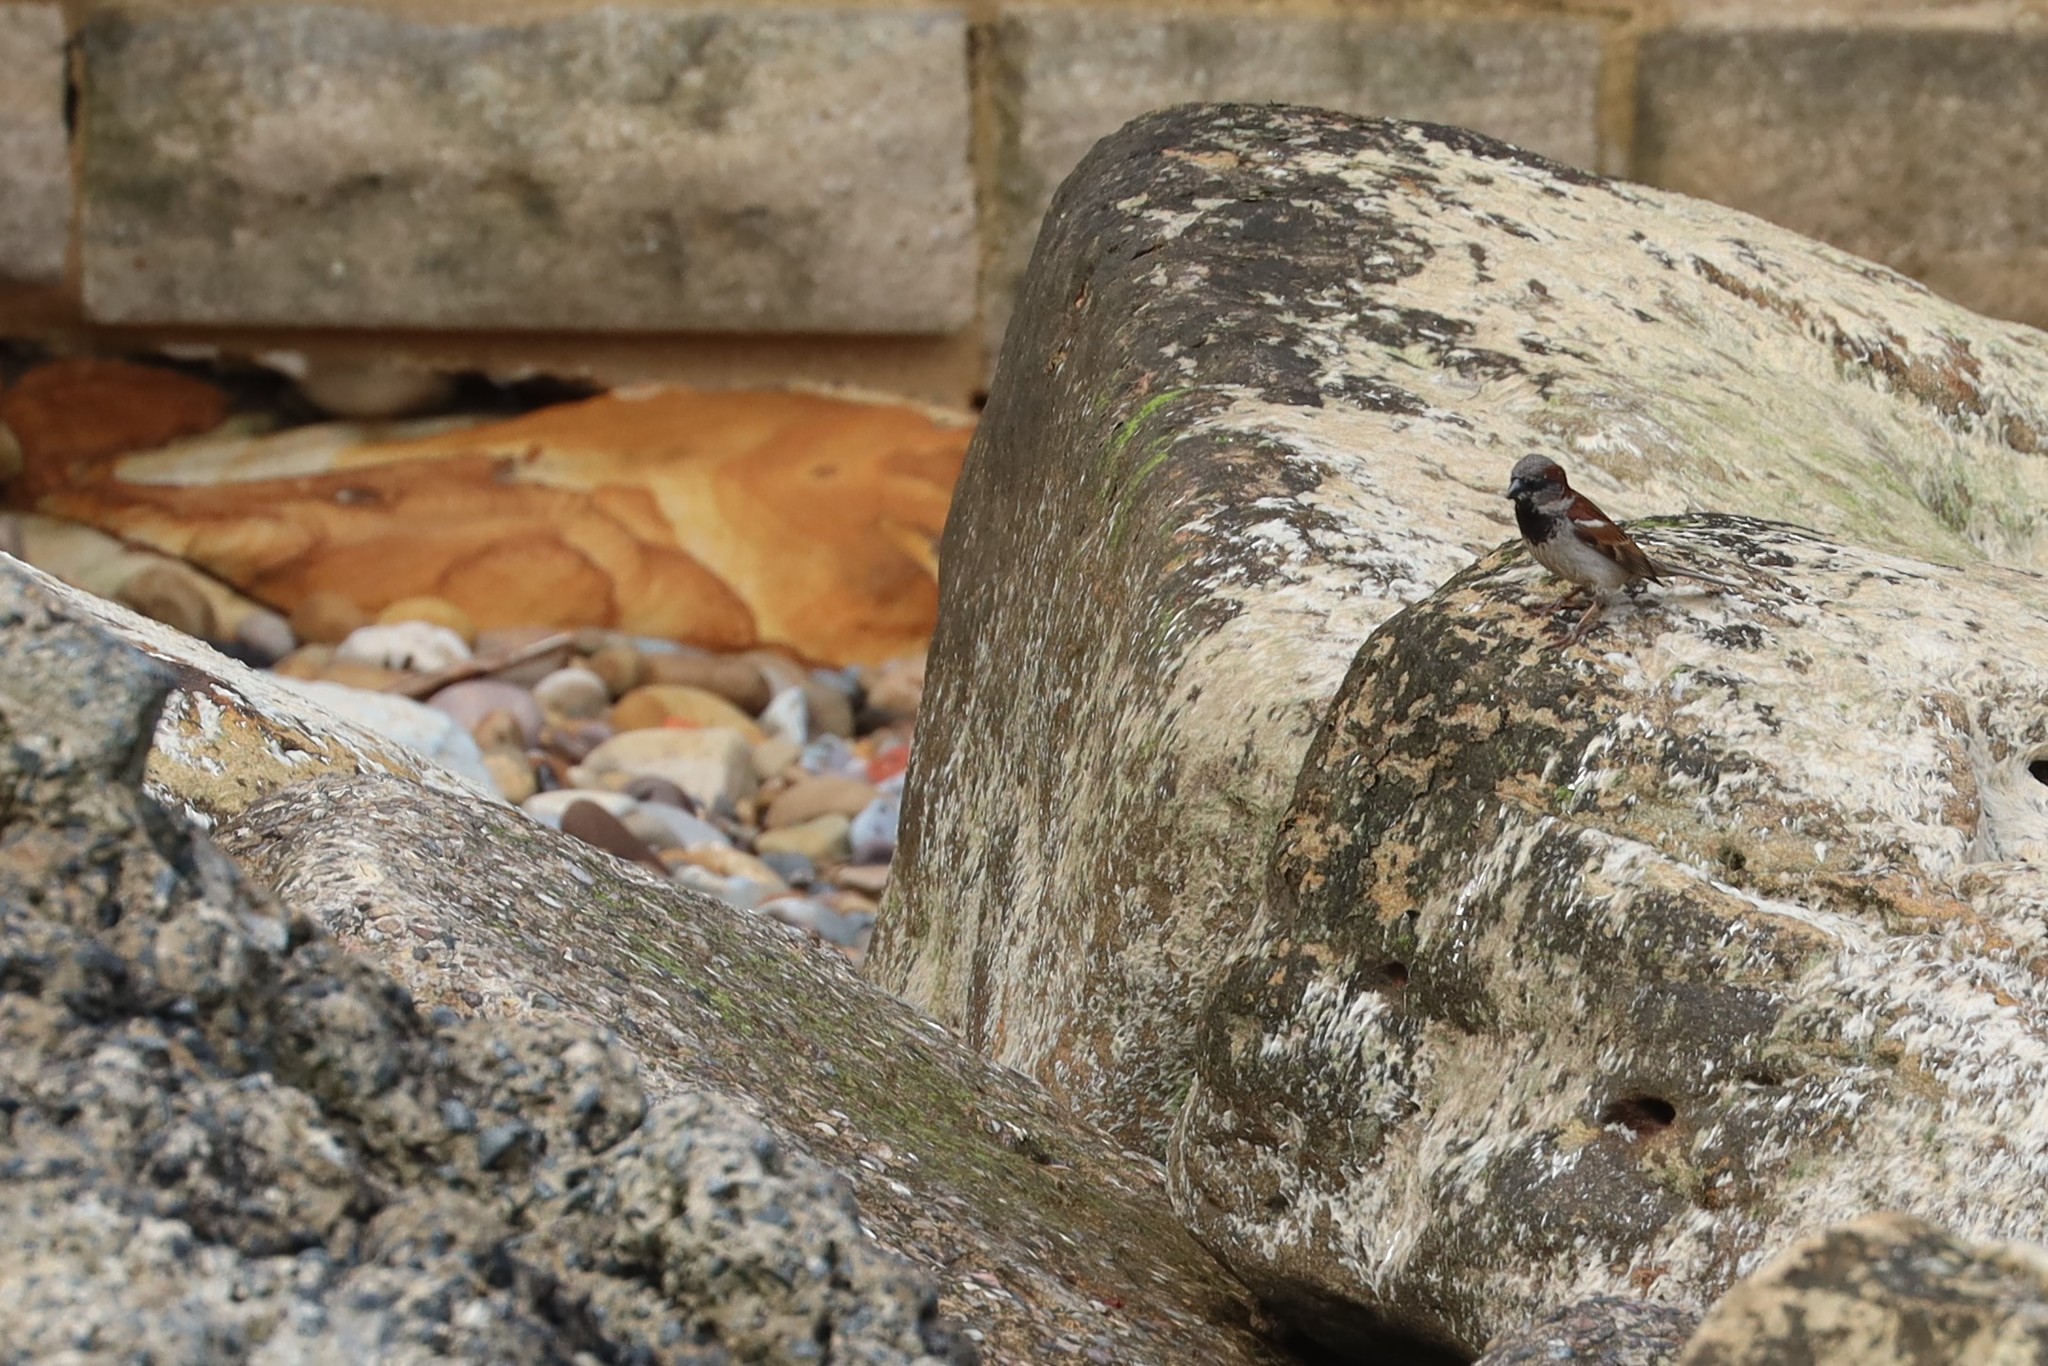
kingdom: Animalia
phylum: Chordata
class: Aves
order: Passeriformes
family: Passeridae
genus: Passer
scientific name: Passer domesticus
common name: House sparrow
